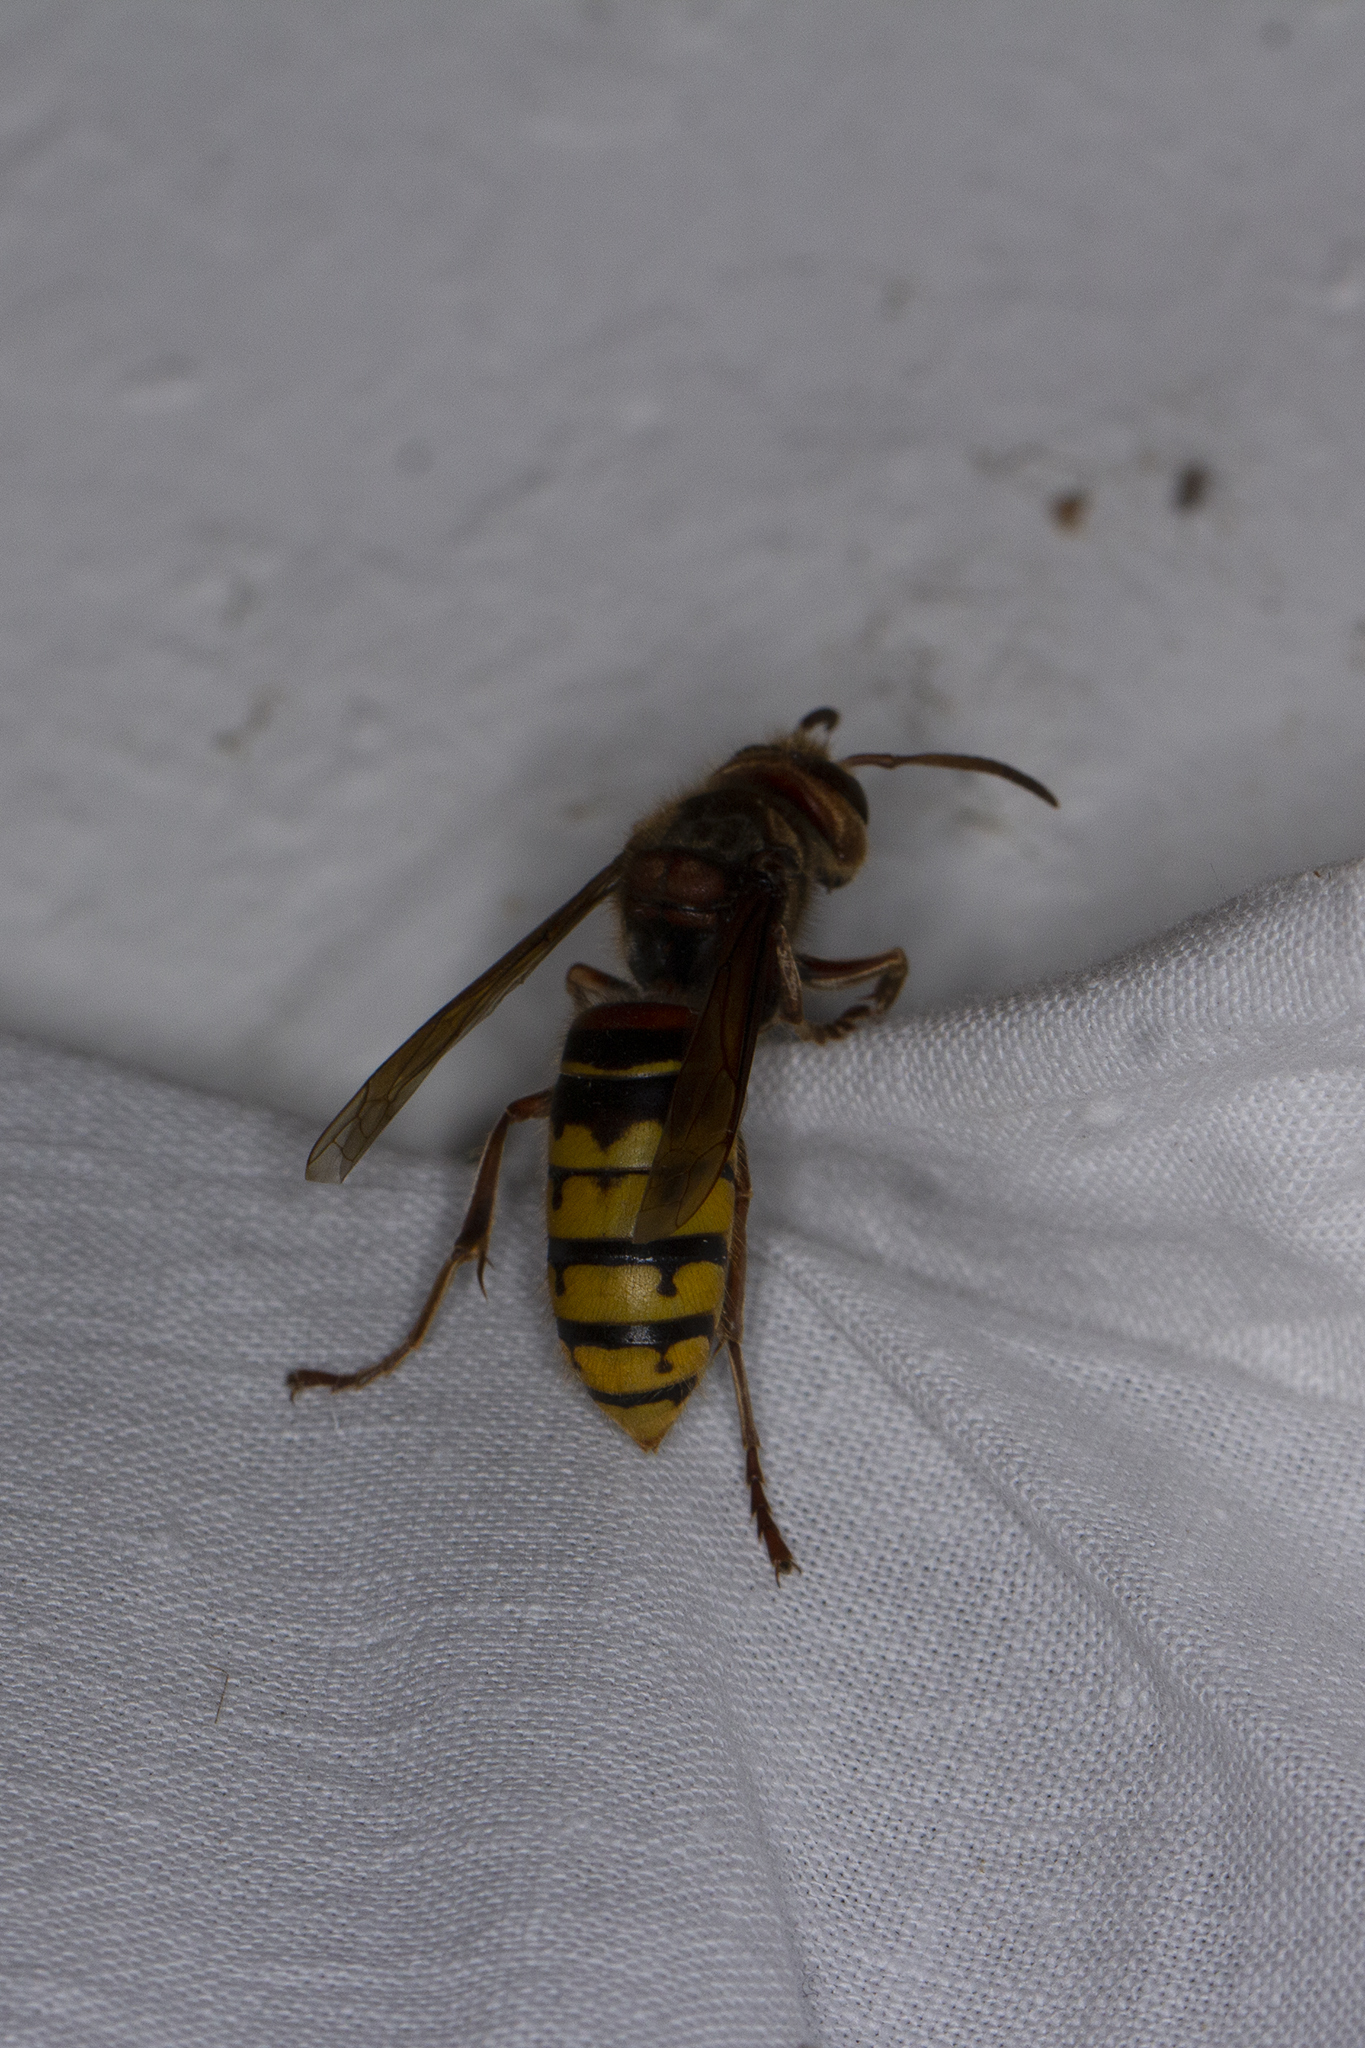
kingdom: Animalia
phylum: Arthropoda
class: Insecta
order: Hymenoptera
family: Vespidae
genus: Vespa
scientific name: Vespa crabro
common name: Hornet
